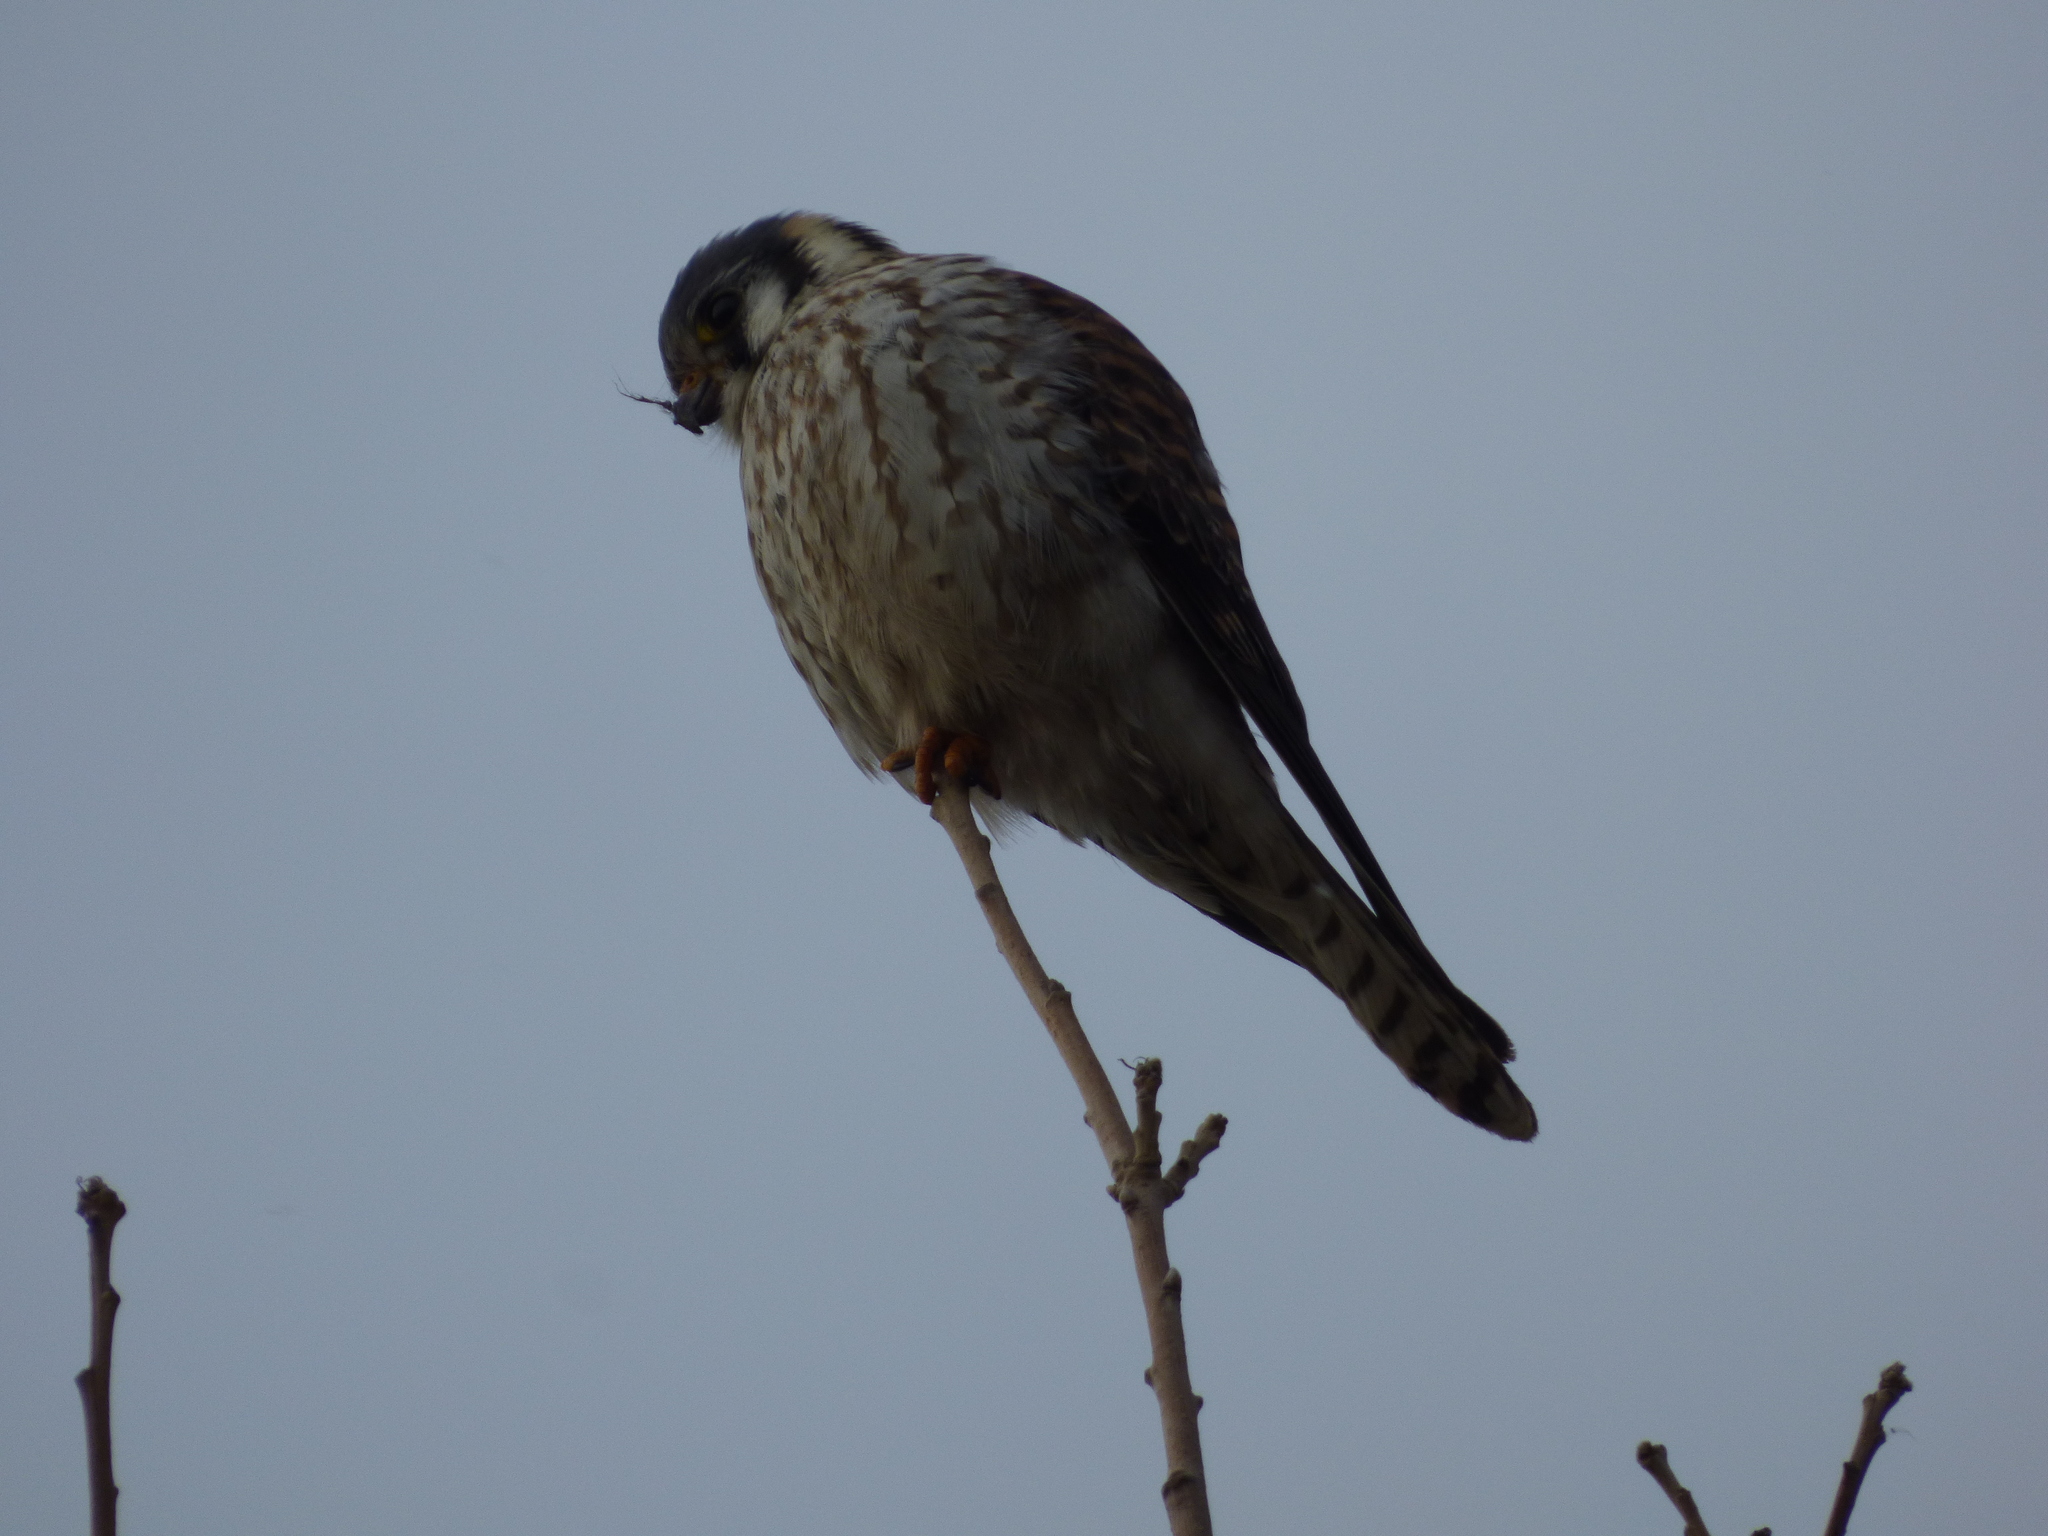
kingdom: Animalia
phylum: Chordata
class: Aves
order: Falconiformes
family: Falconidae
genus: Falco
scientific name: Falco sparverius
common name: American kestrel
